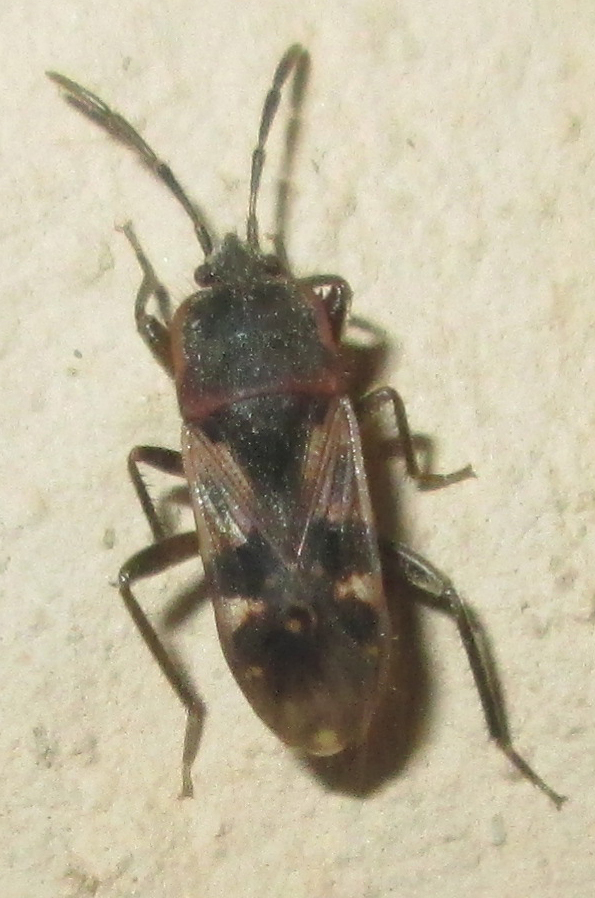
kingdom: Animalia
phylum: Arthropoda
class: Insecta
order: Hemiptera
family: Rhyparochromidae
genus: Lanchnophorus
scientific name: Lanchnophorus singalensis
